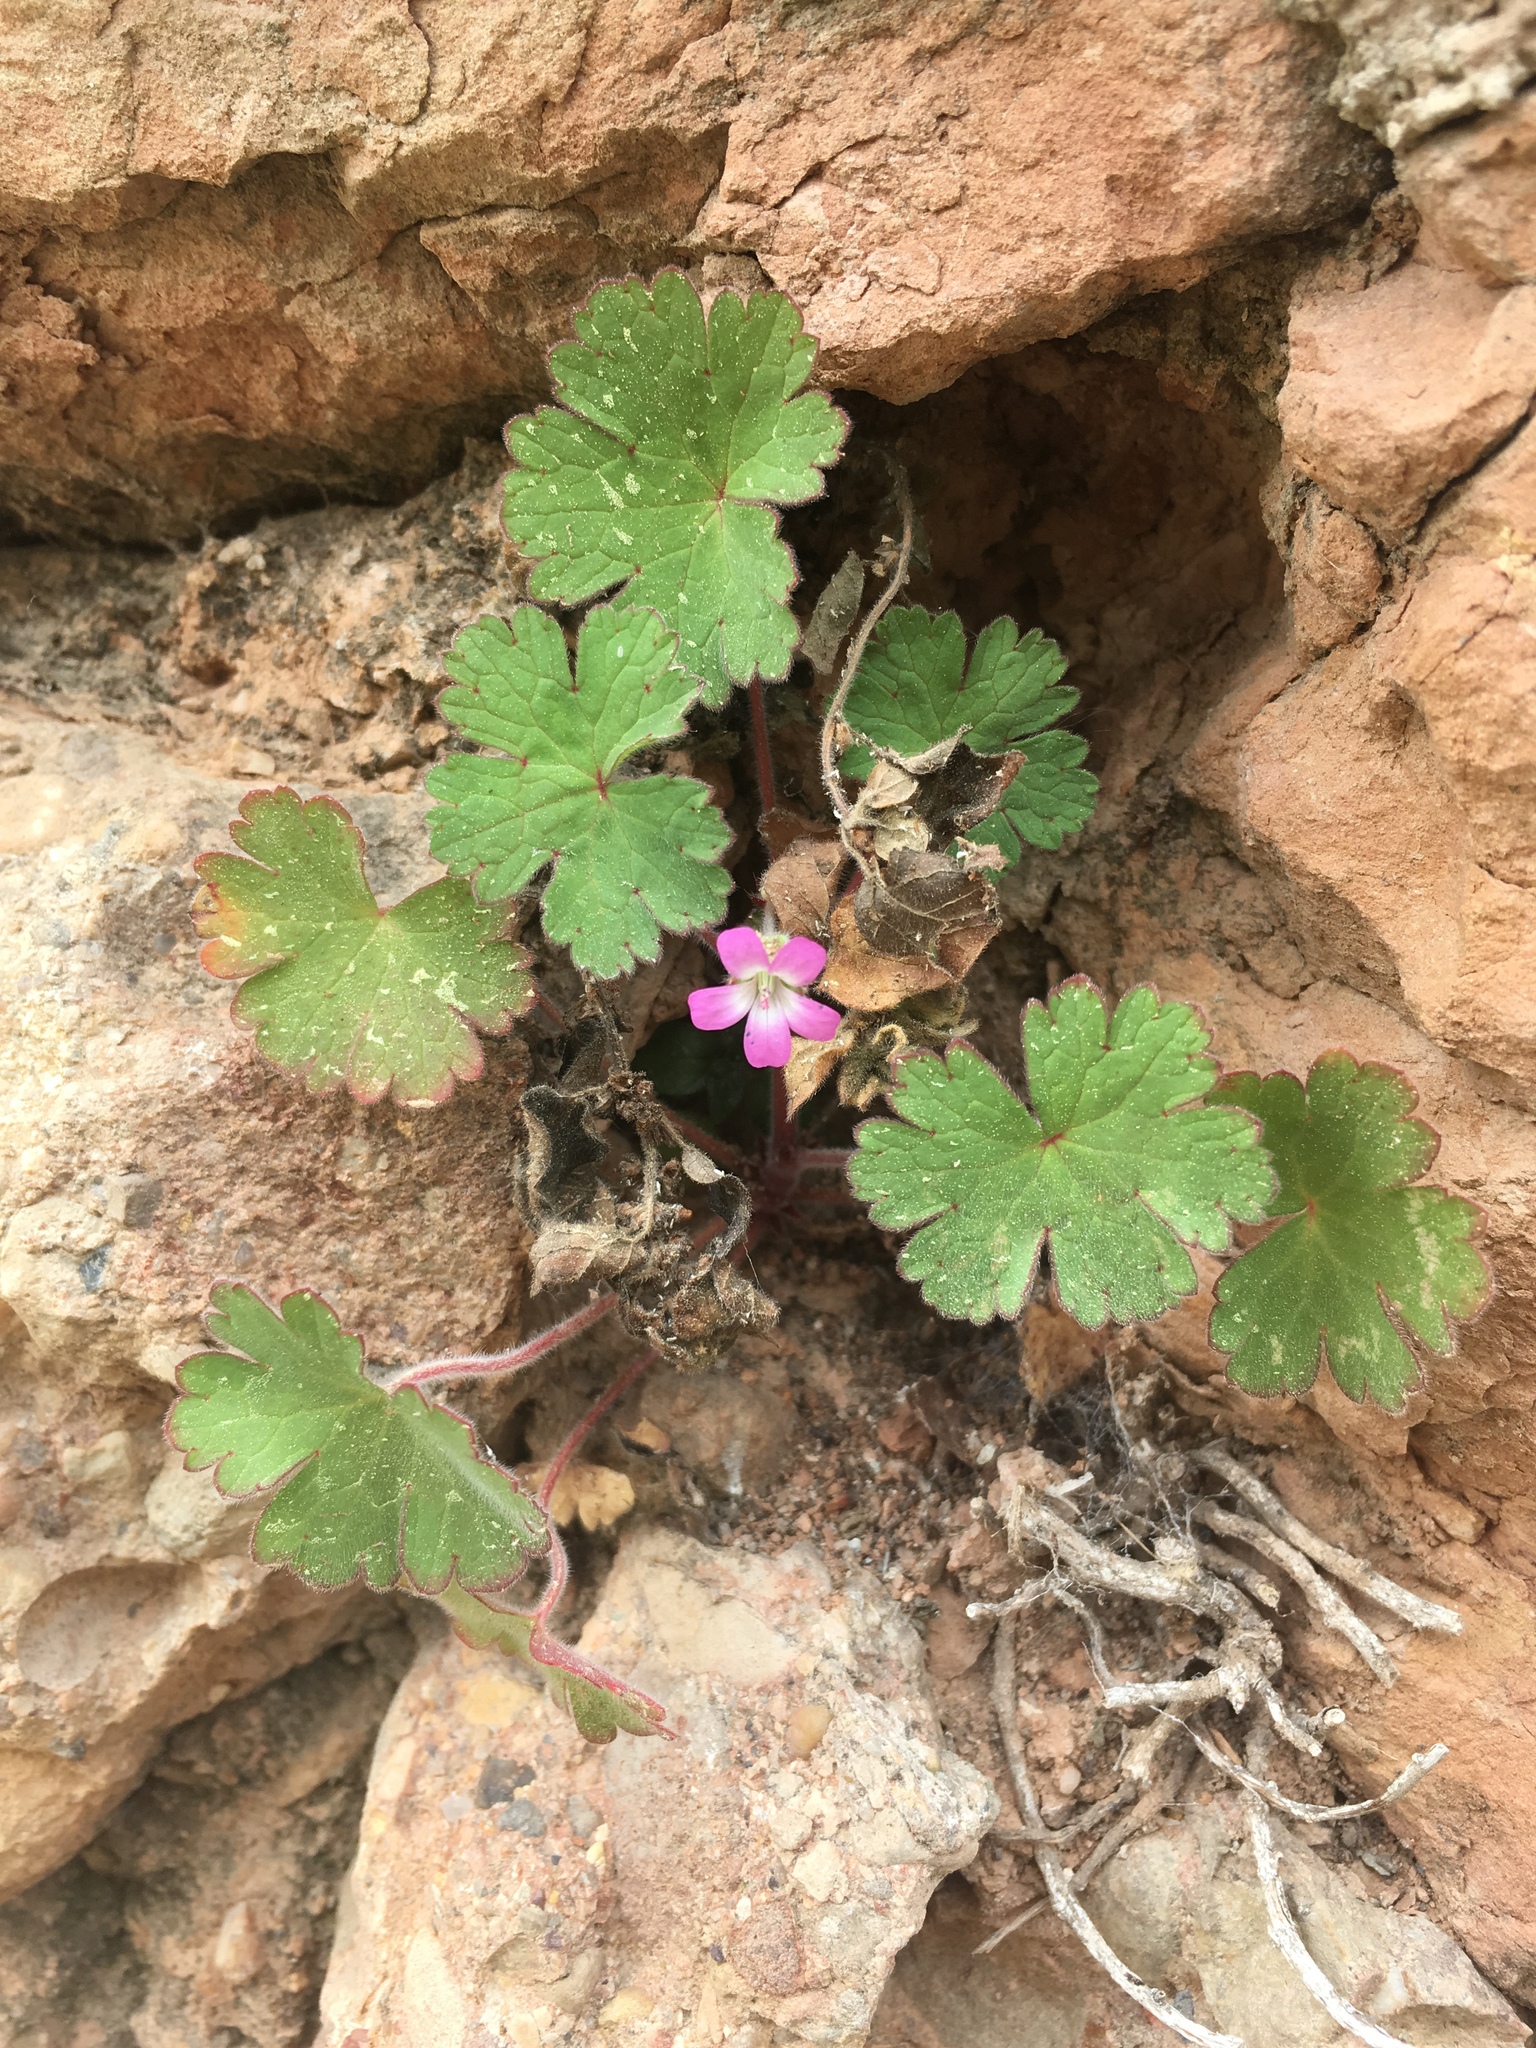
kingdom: Plantae
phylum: Tracheophyta
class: Magnoliopsida
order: Geraniales
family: Geraniaceae
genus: Geranium
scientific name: Geranium rotundifolium
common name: Round-leaved crane's-bill
